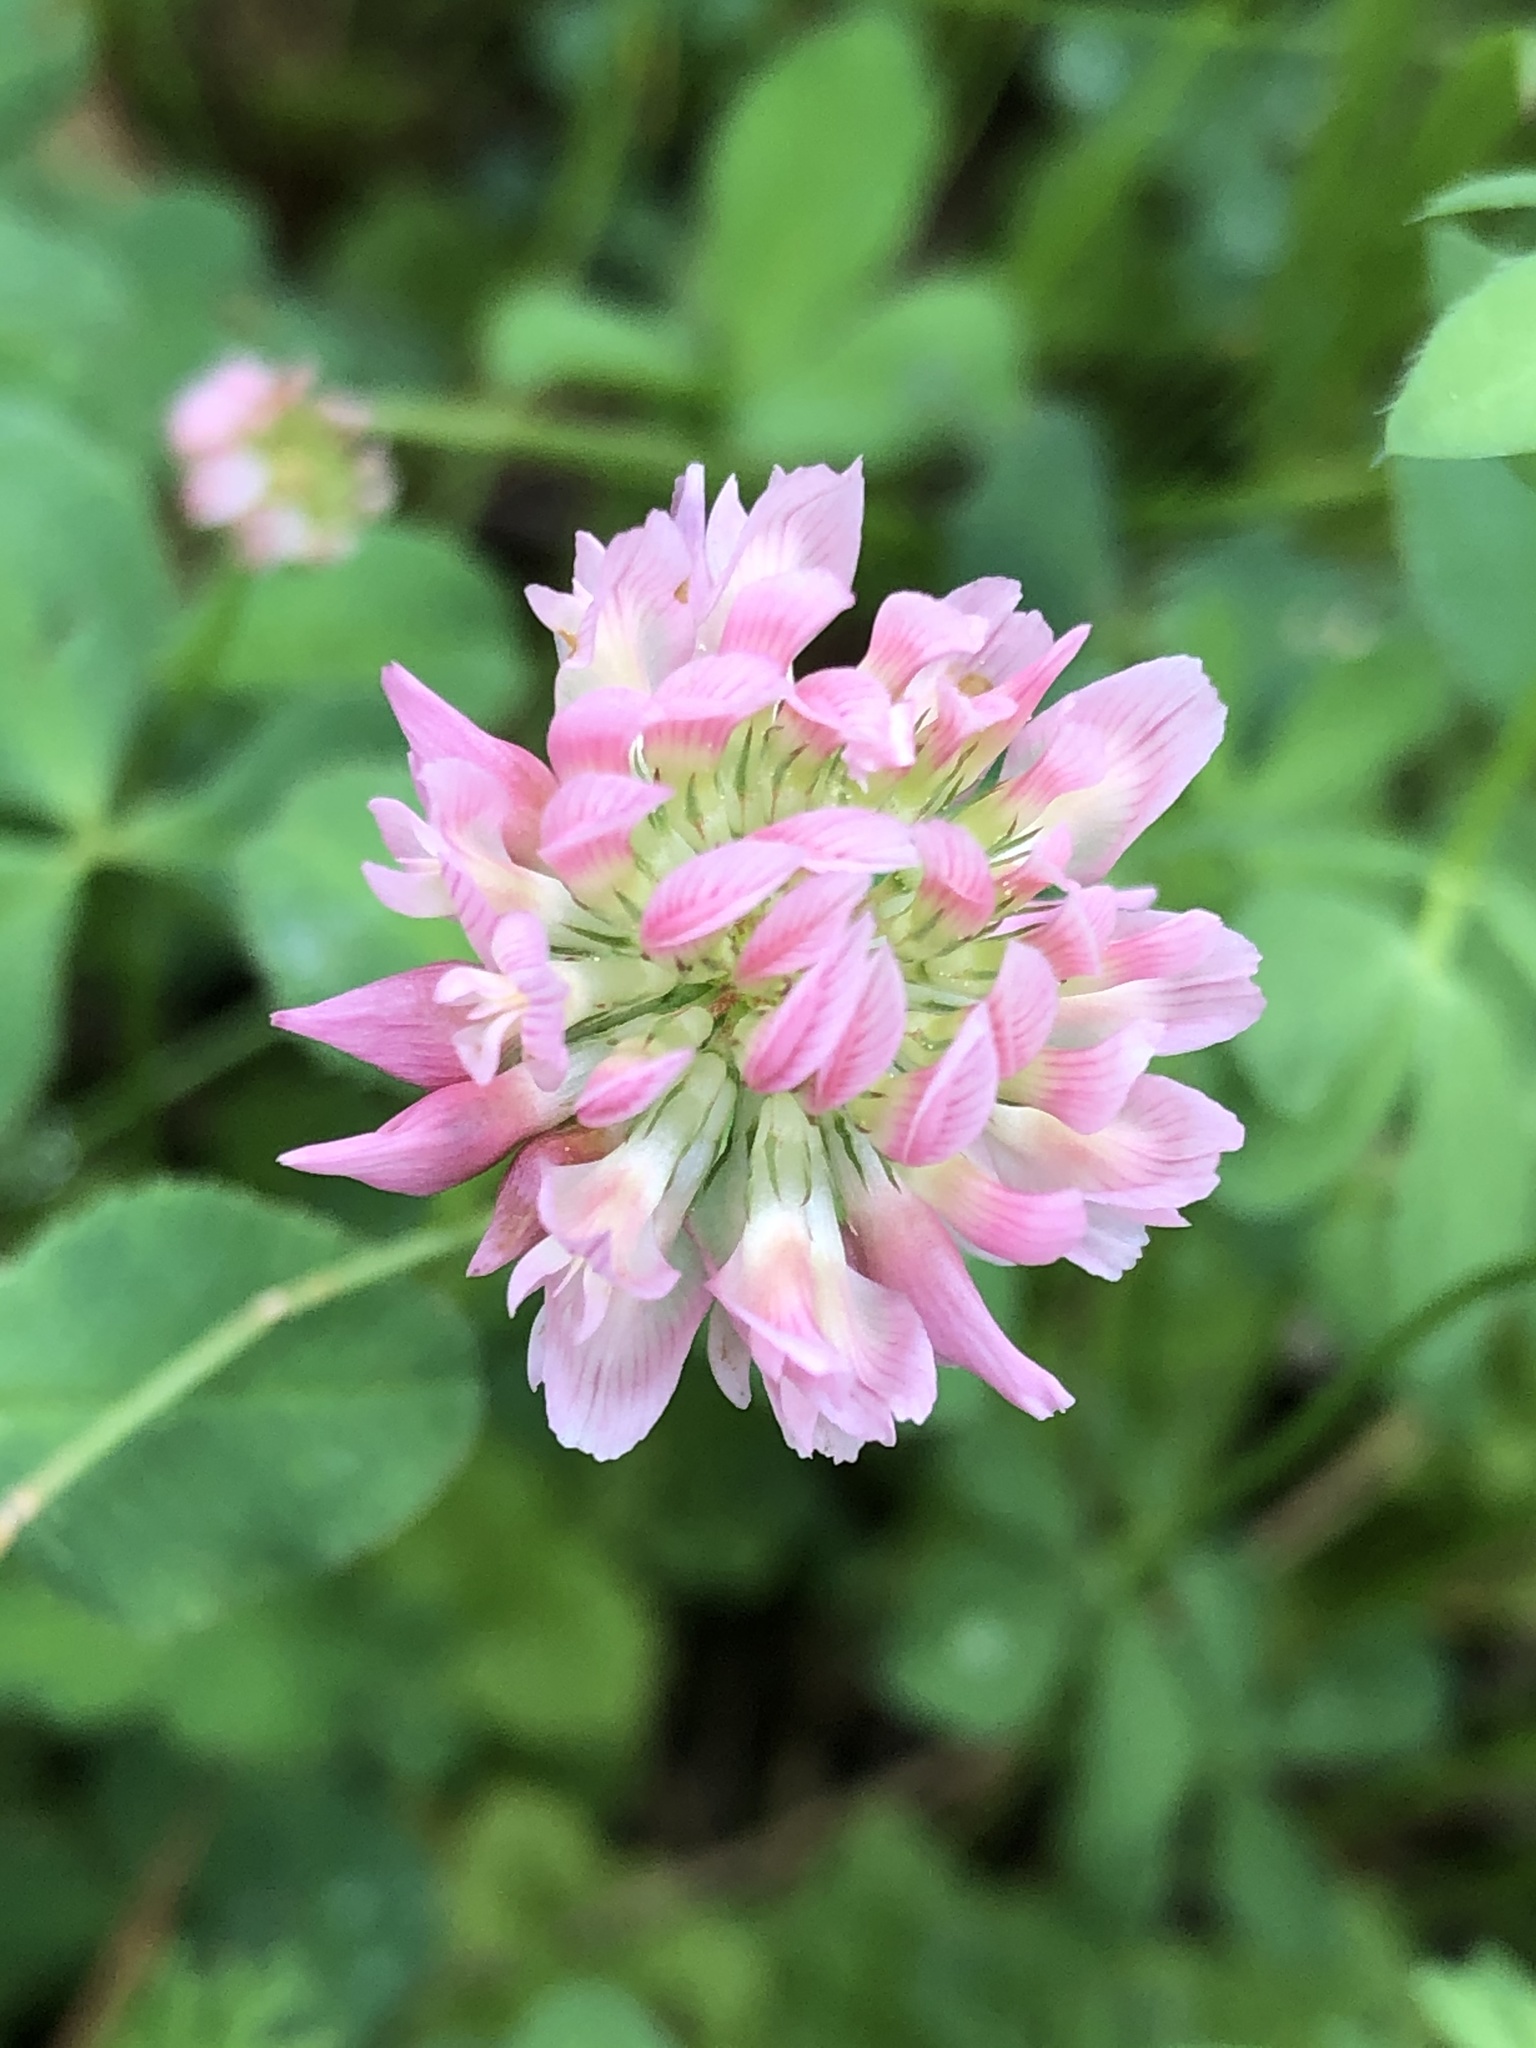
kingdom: Plantae
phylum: Tracheophyta
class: Magnoliopsida
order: Fabales
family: Fabaceae
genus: Trifolium
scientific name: Trifolium hybridum
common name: Alsike clover
